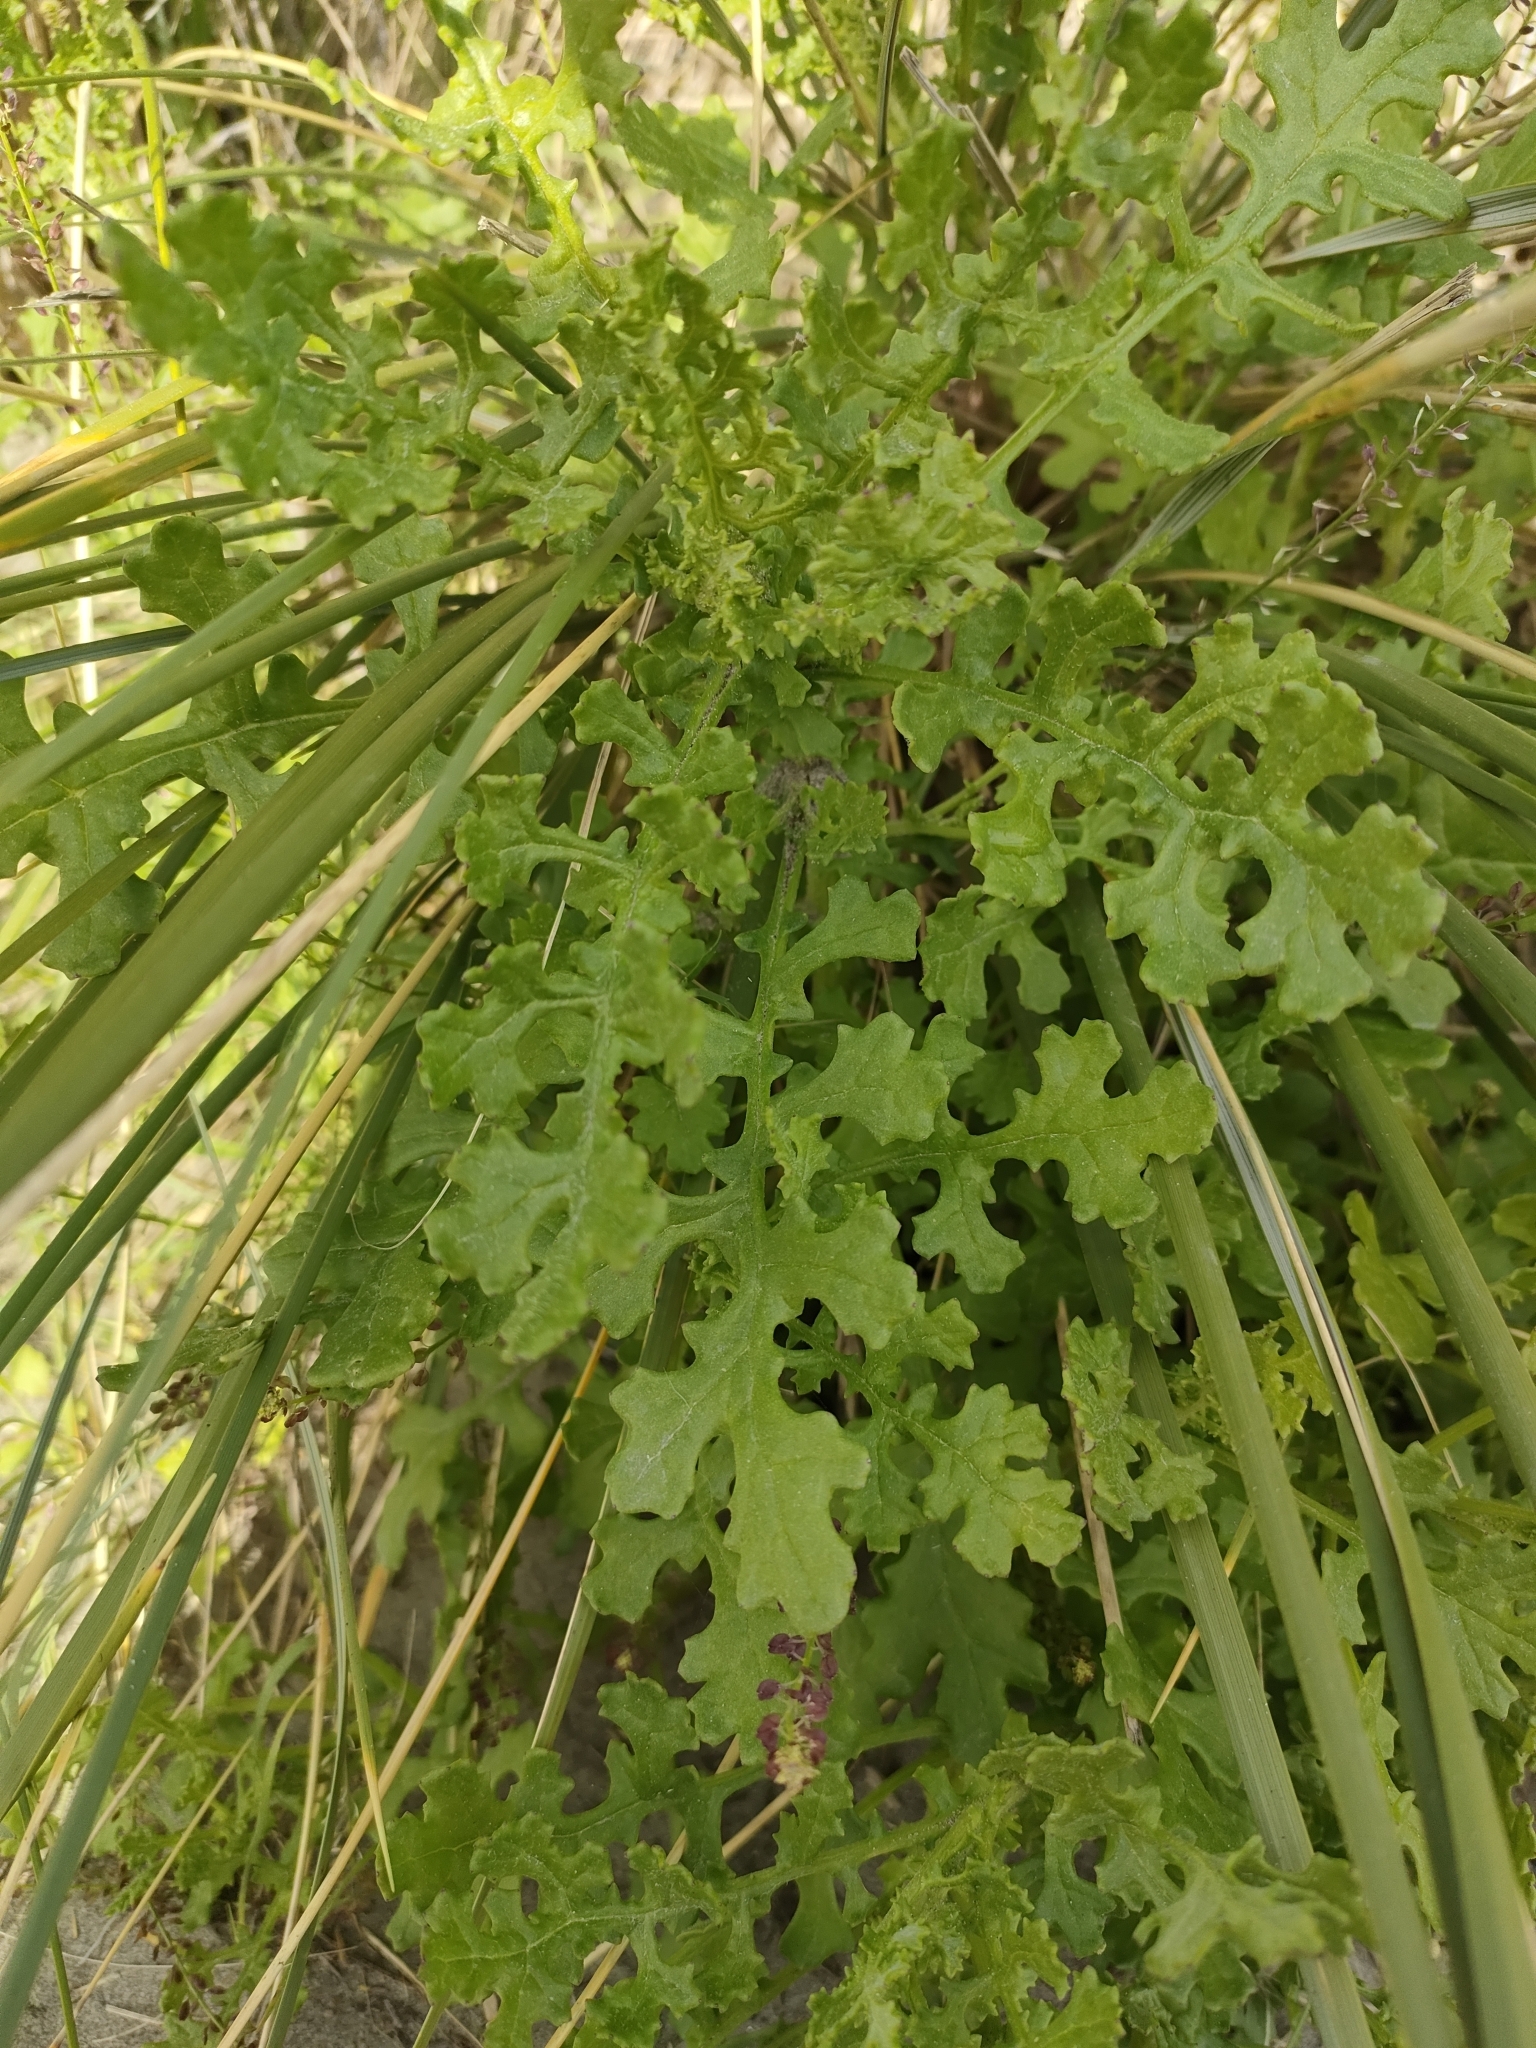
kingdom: Plantae
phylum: Tracheophyta
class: Magnoliopsida
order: Asterales
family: Asteraceae
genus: Senecio
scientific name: Senecio elegans
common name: Purple groundsel
